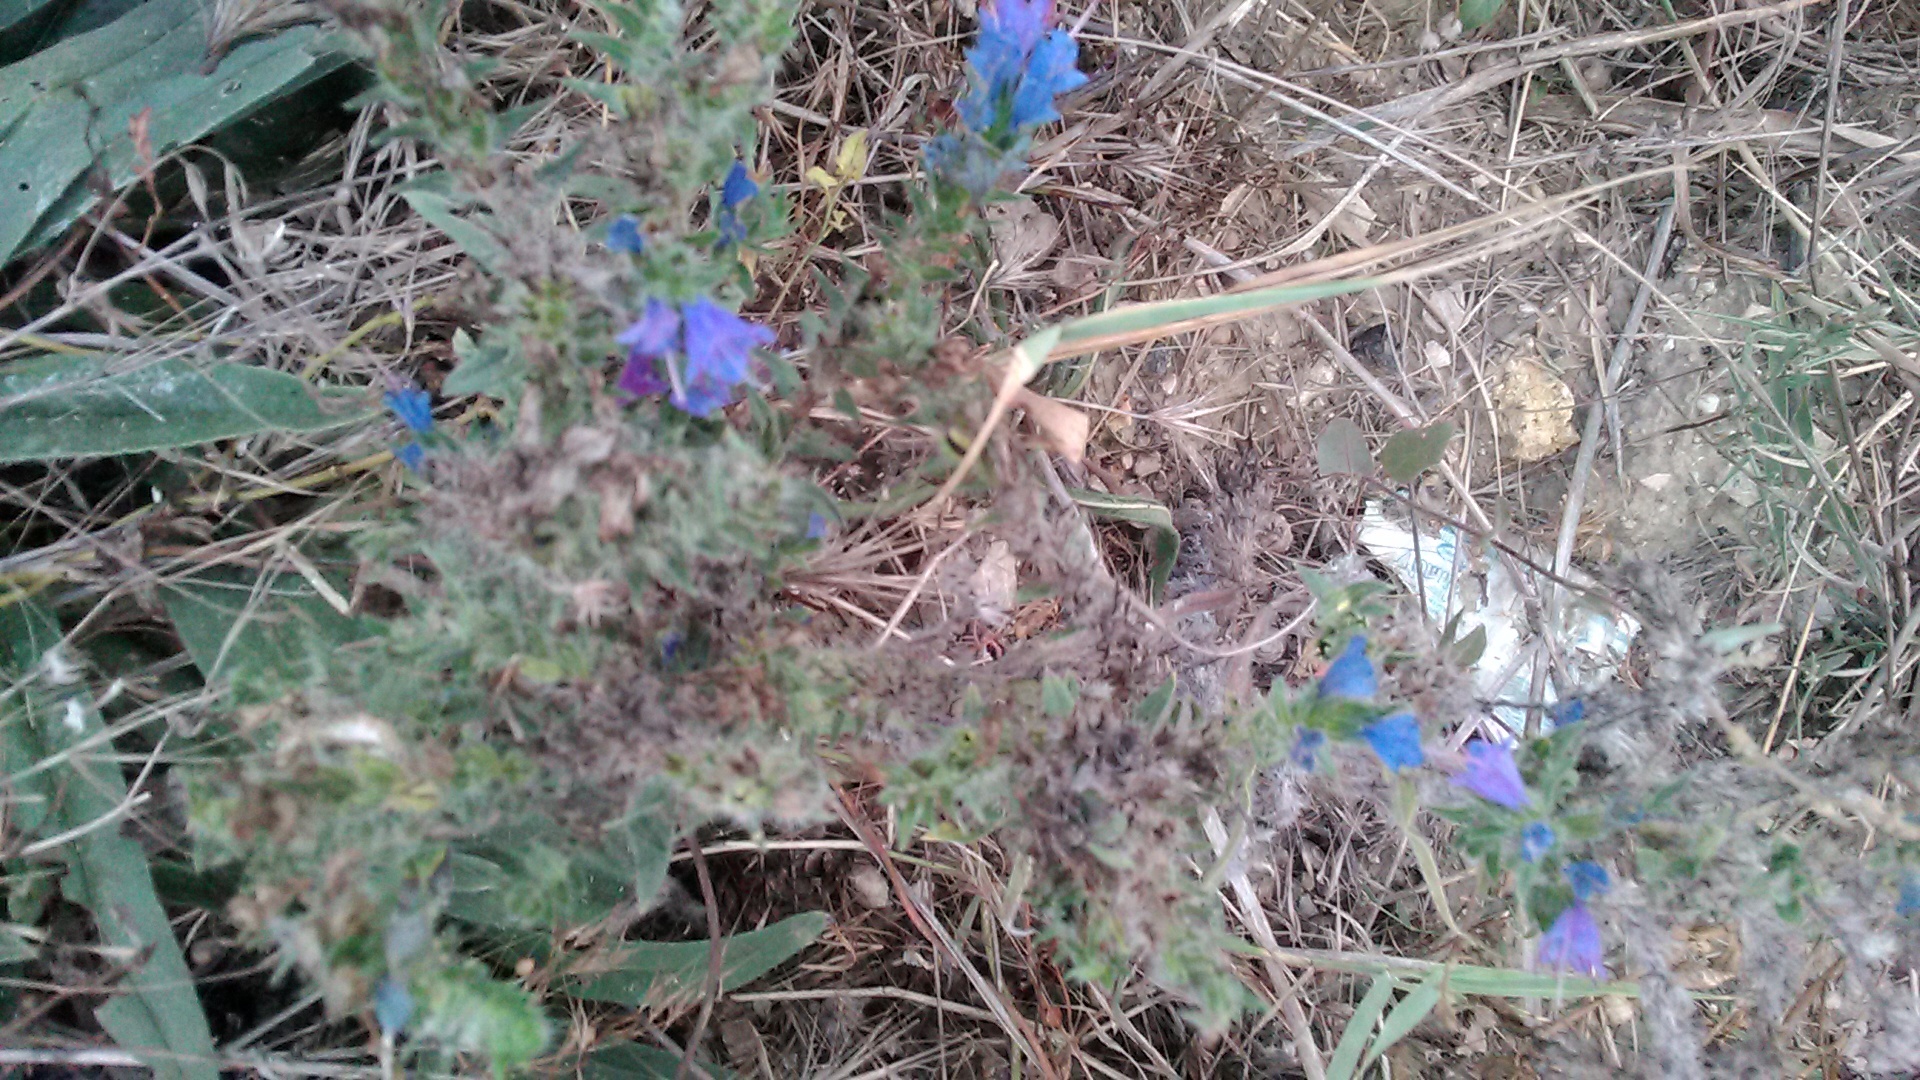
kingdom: Plantae
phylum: Tracheophyta
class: Magnoliopsida
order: Boraginales
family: Boraginaceae
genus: Echium
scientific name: Echium vulgare
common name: Common viper's bugloss
